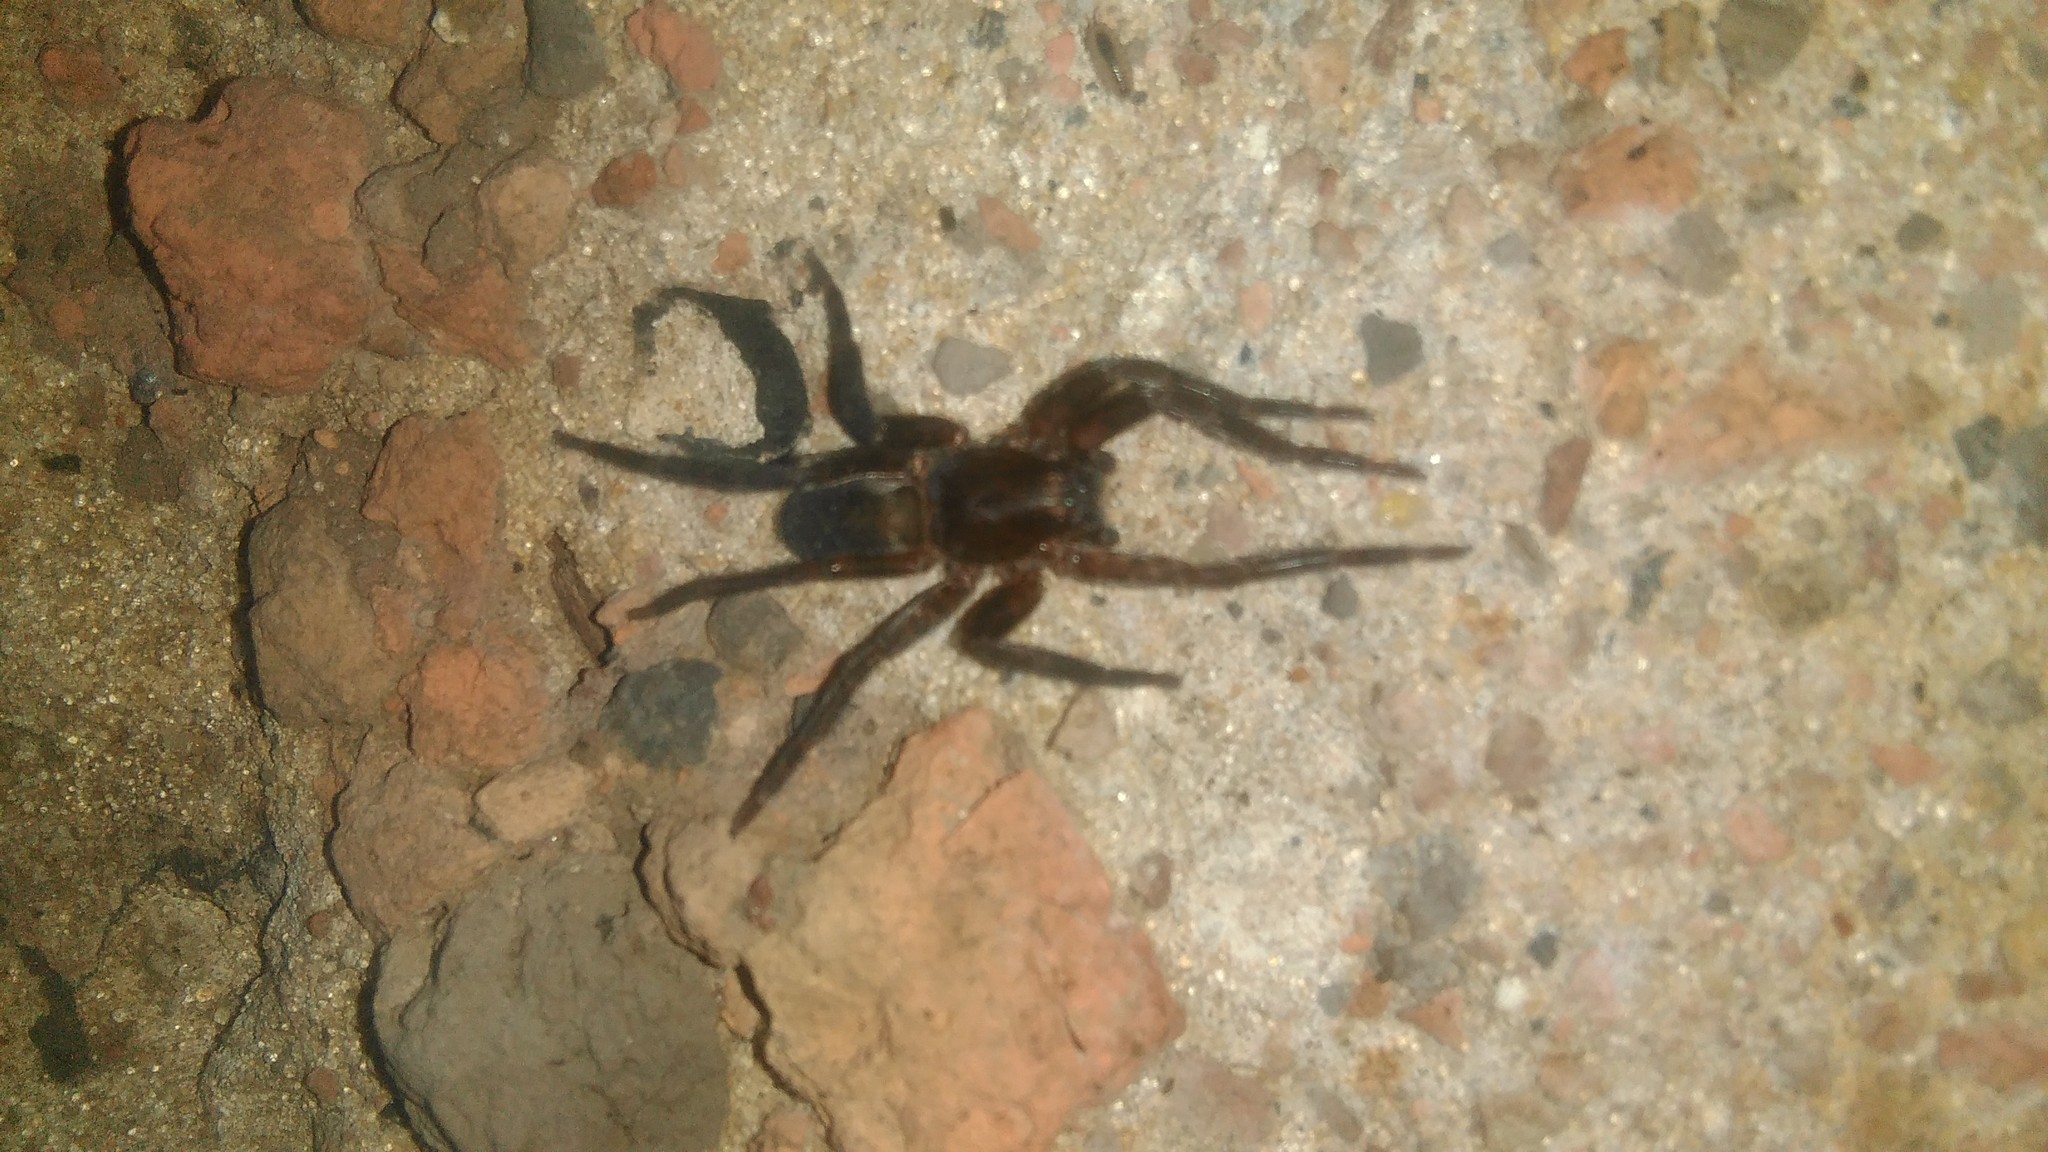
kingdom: Animalia
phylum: Arthropoda
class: Arachnida
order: Araneae
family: Ctenidae
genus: Asthenoctenus
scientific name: Asthenoctenus borellii
